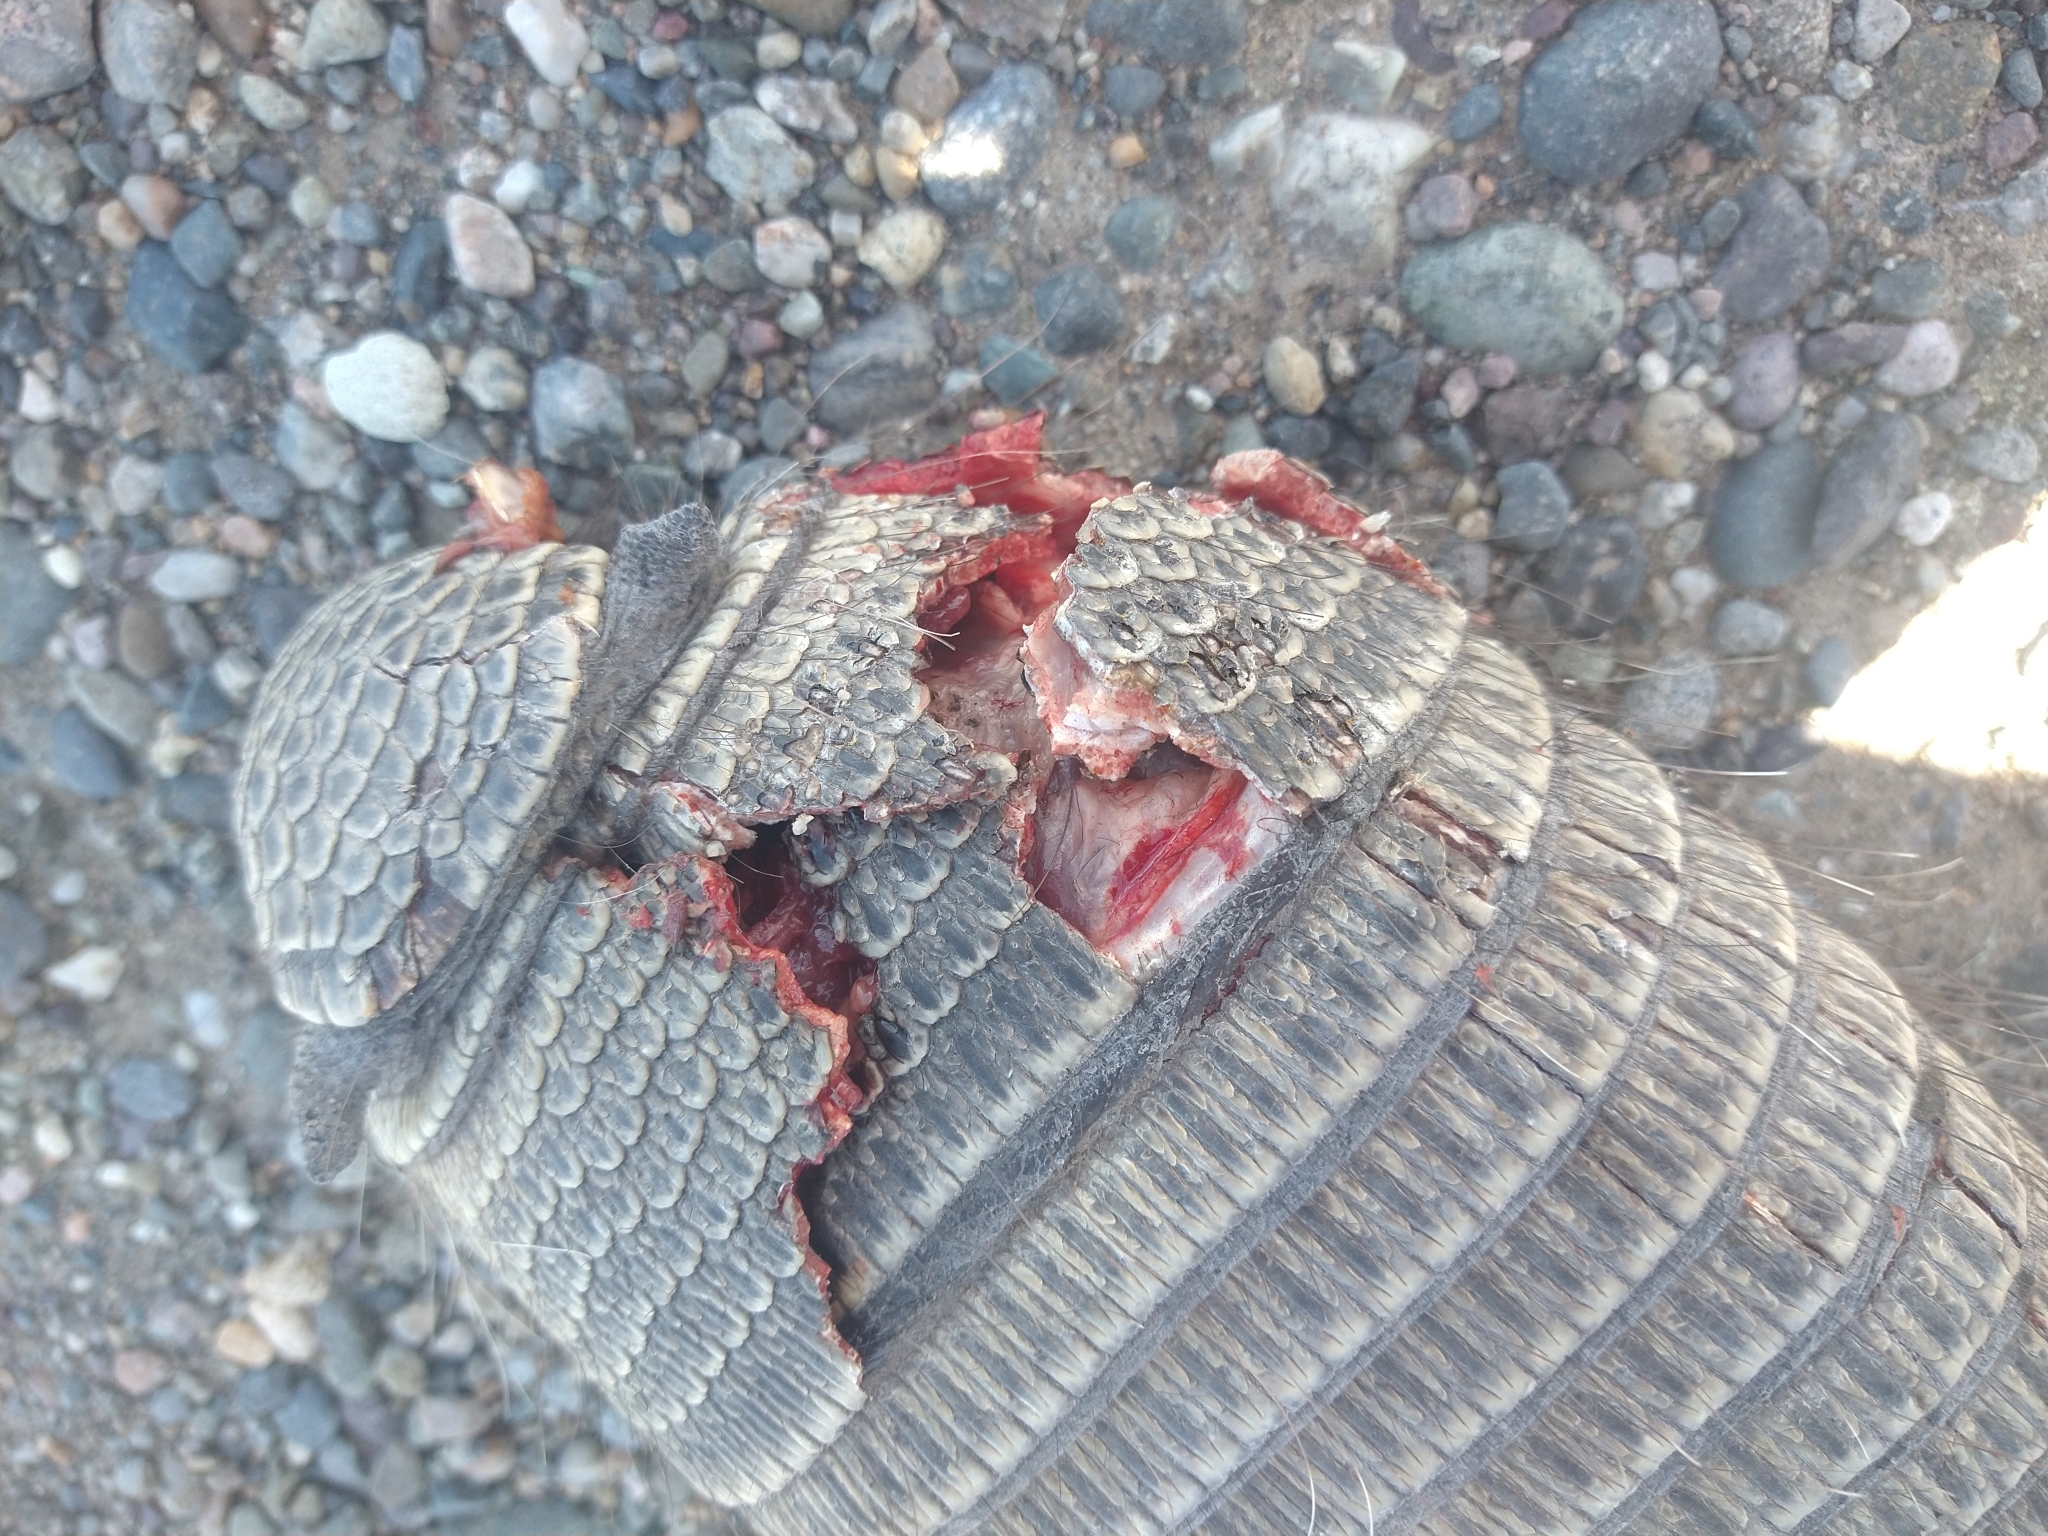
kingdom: Animalia
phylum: Chordata
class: Mammalia
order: Cingulata
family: Dasypodidae
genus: Zaedyus
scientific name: Zaedyus pichiy
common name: Pichi
